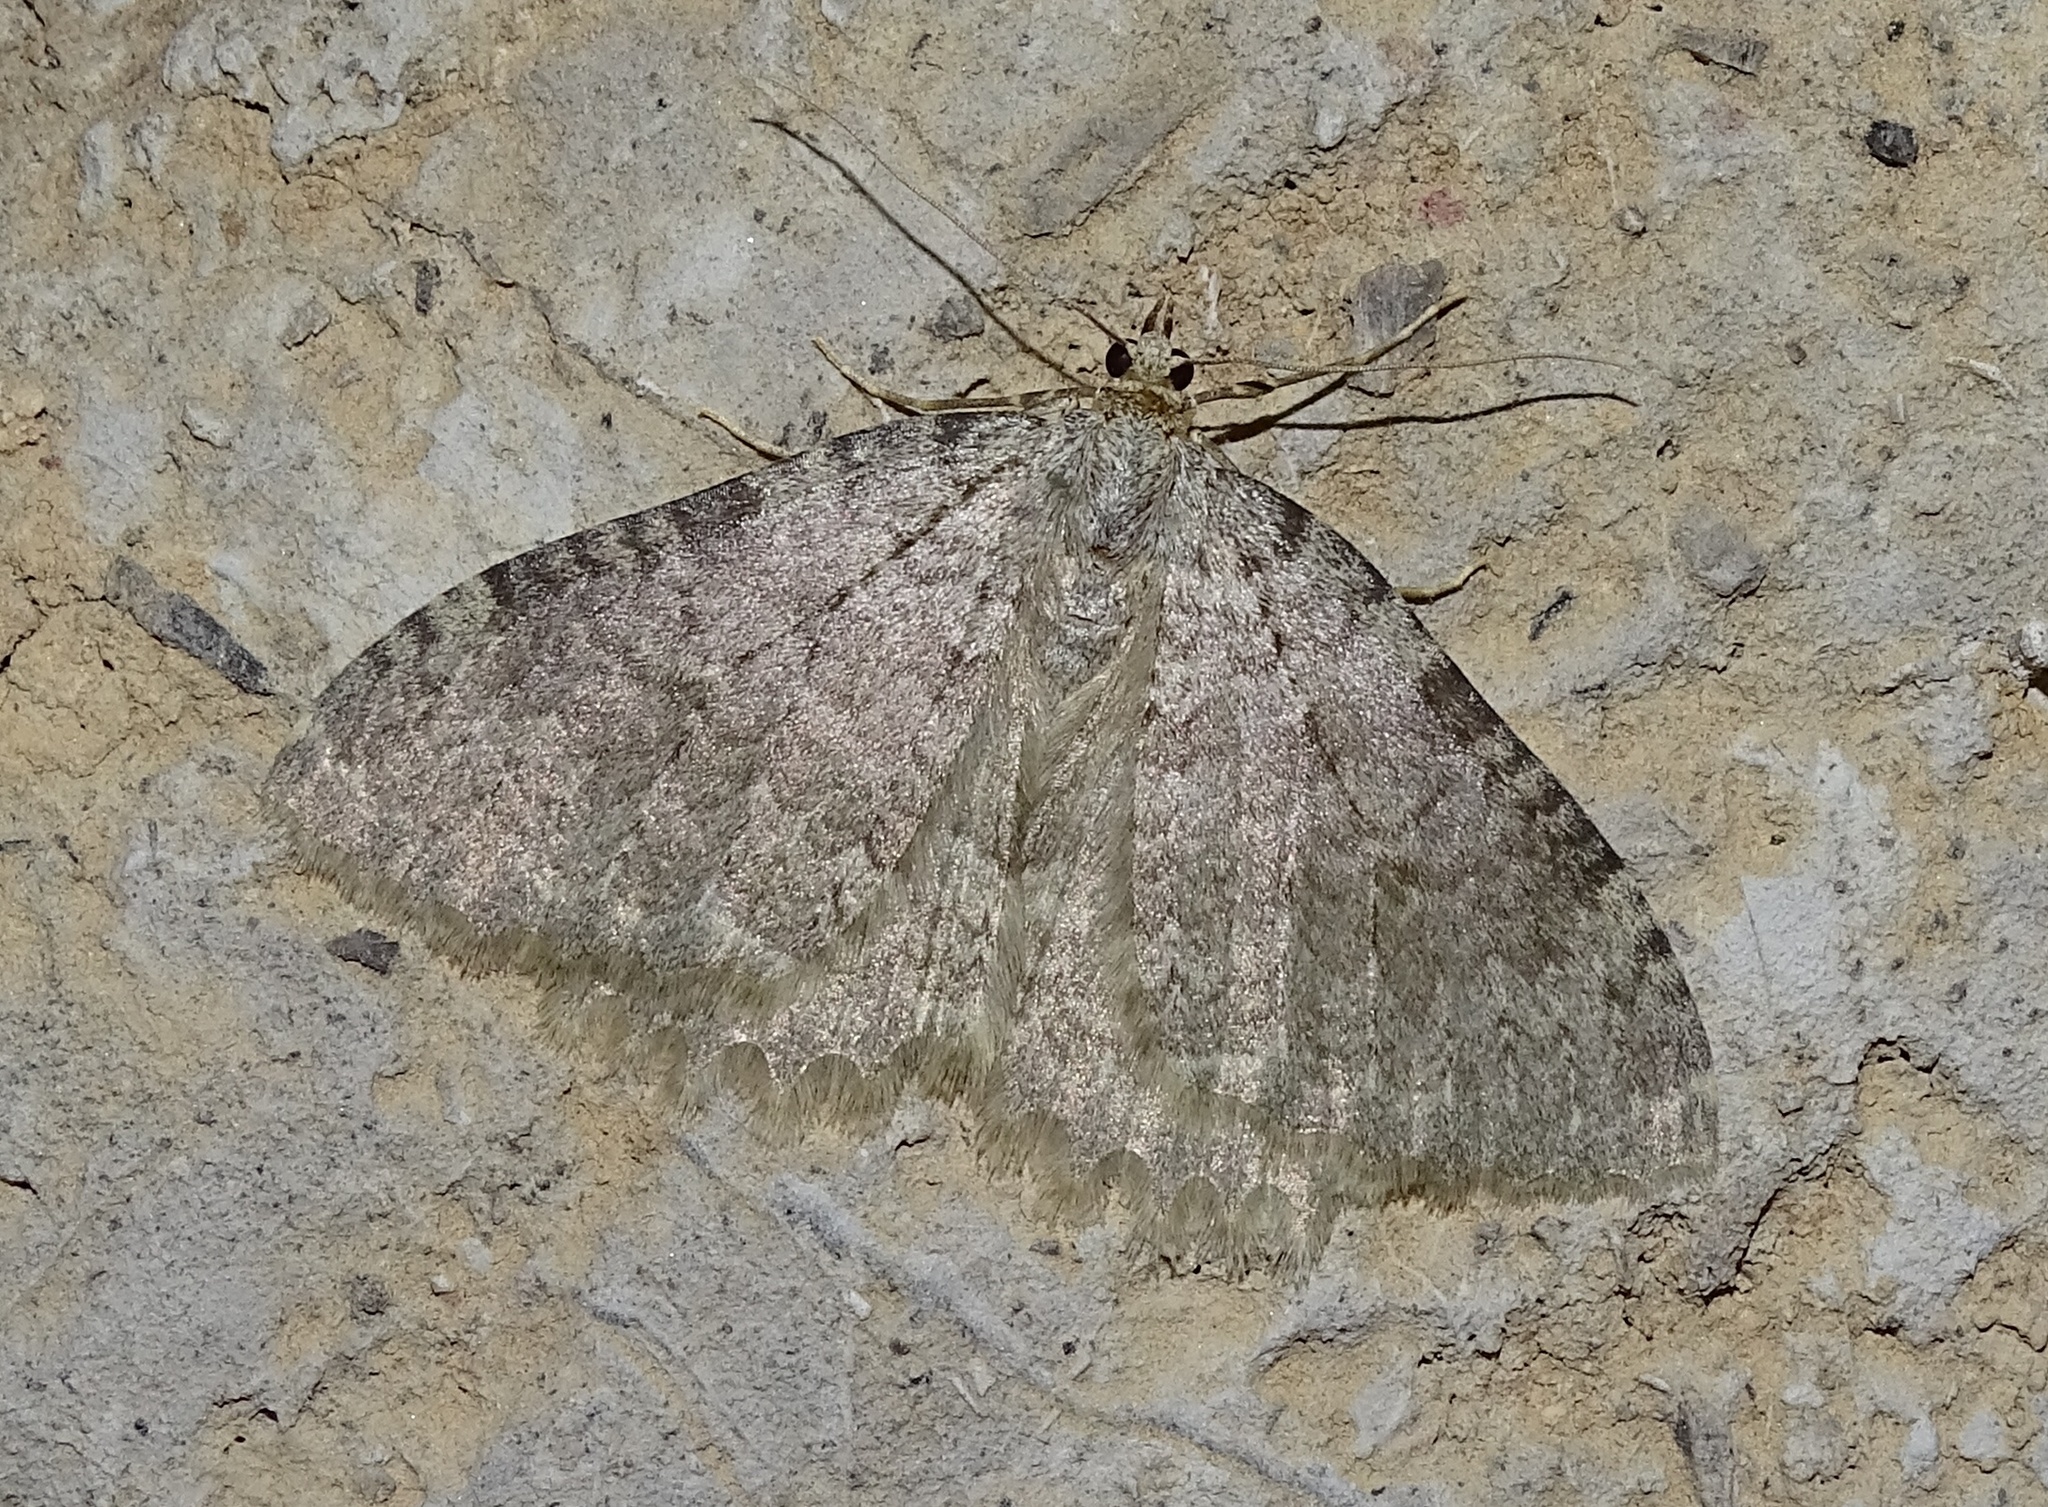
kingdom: Animalia
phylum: Arthropoda
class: Insecta
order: Lepidoptera
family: Geometridae
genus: Triphosa
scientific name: Triphosa sabaudiata
